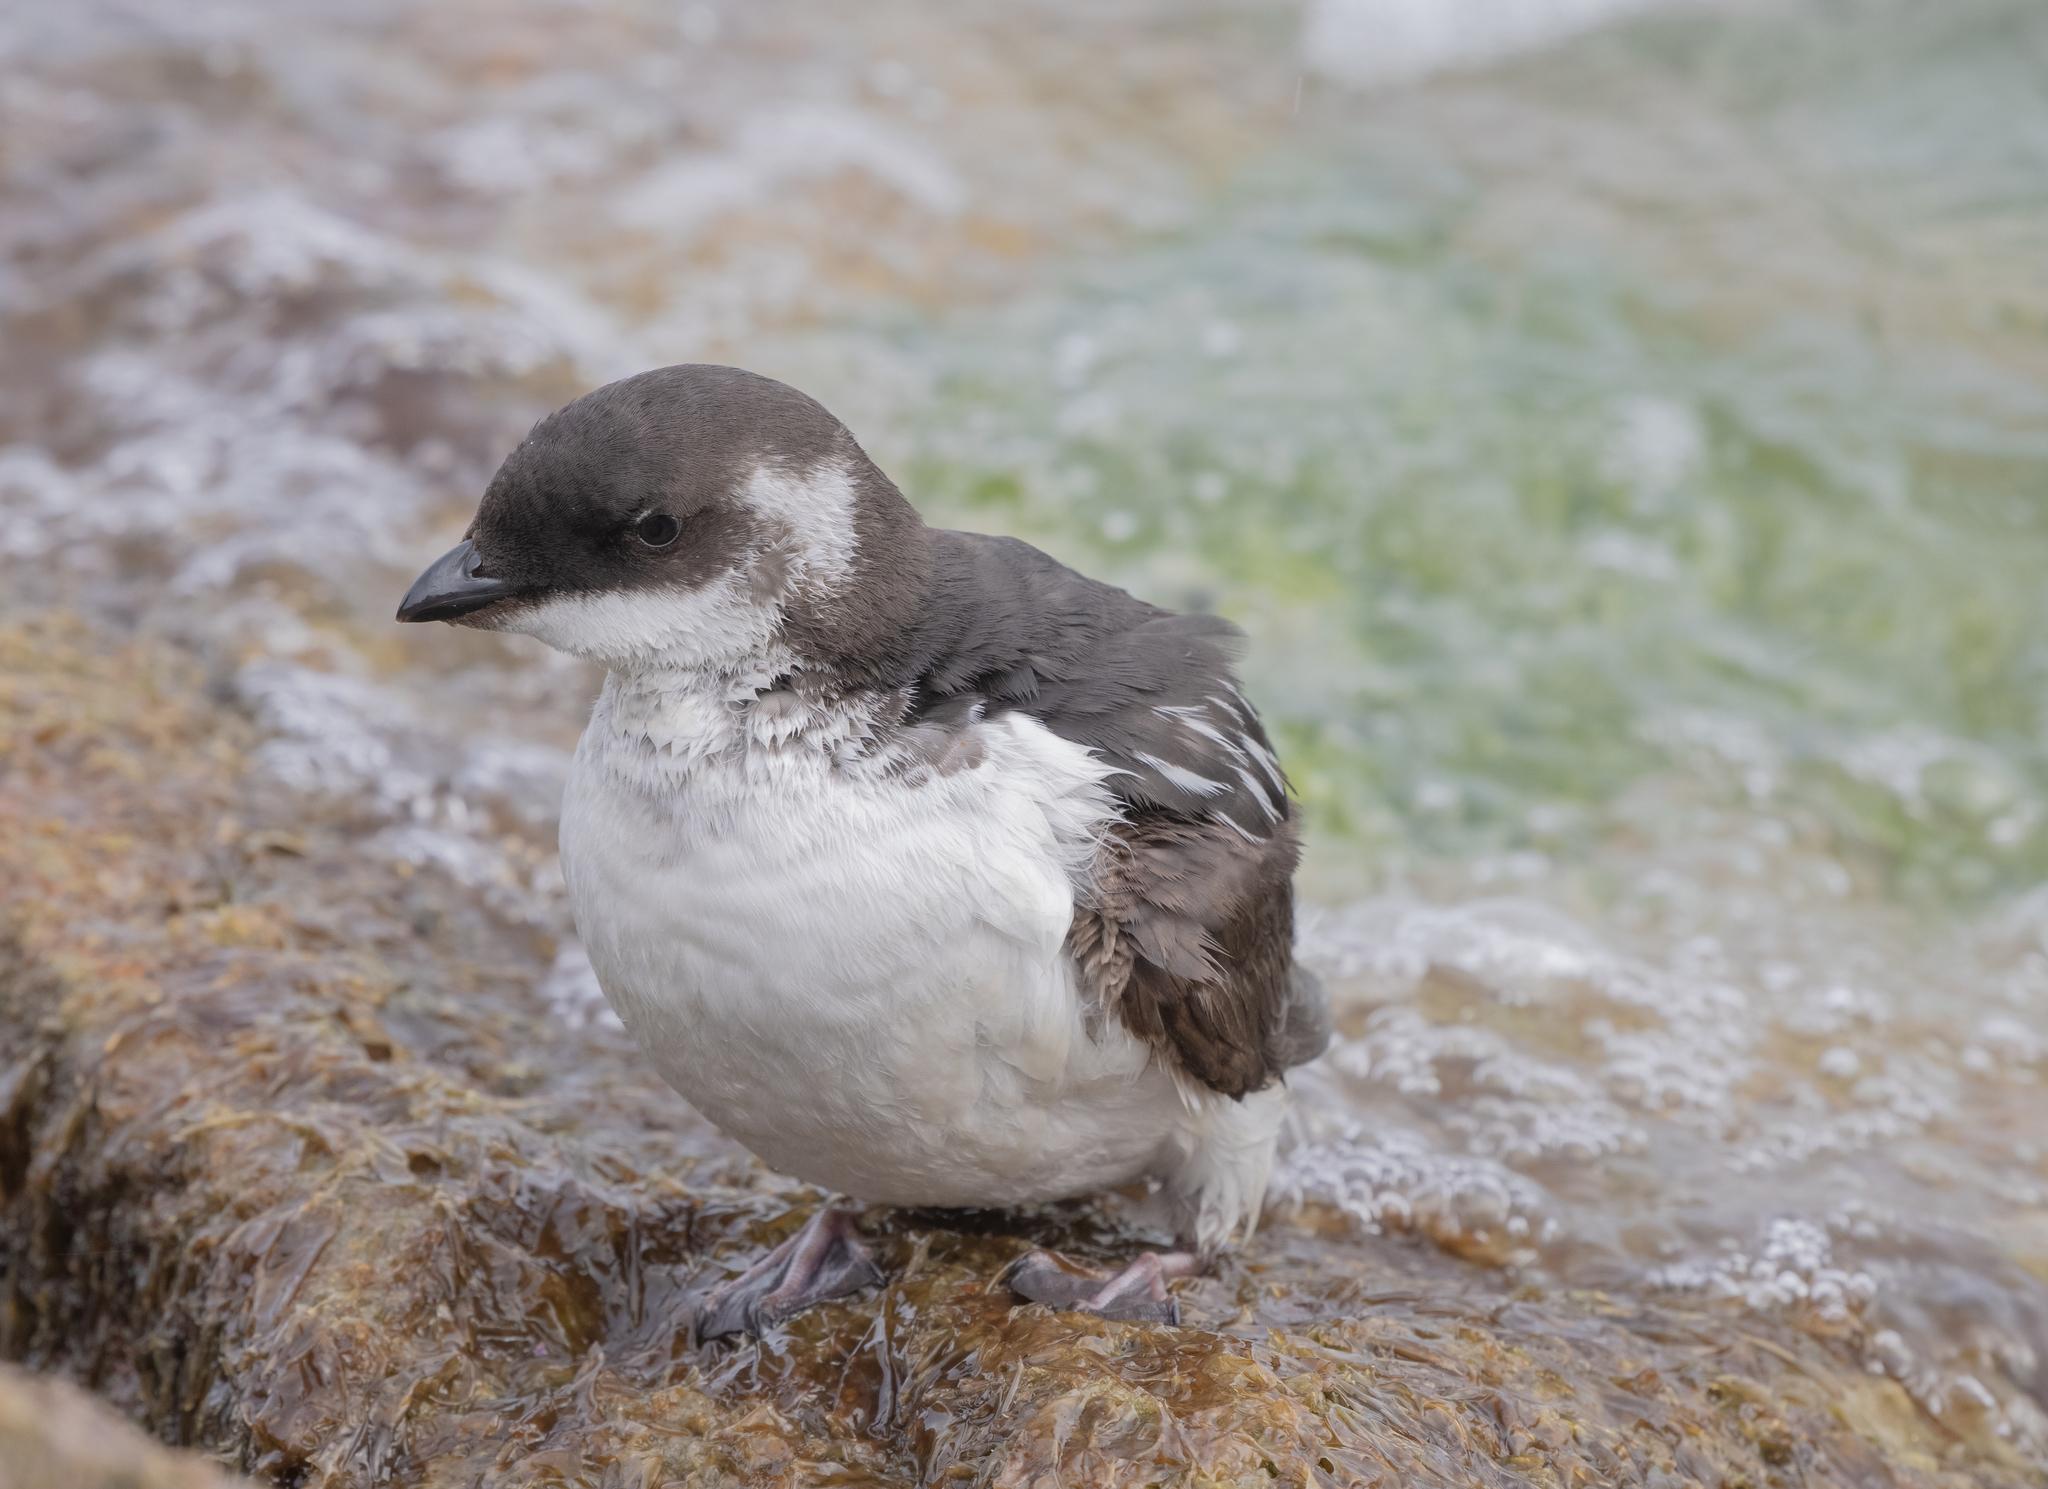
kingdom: Animalia
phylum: Chordata
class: Aves
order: Charadriiformes
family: Alcidae
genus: Alle
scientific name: Alle alle
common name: Little auk
